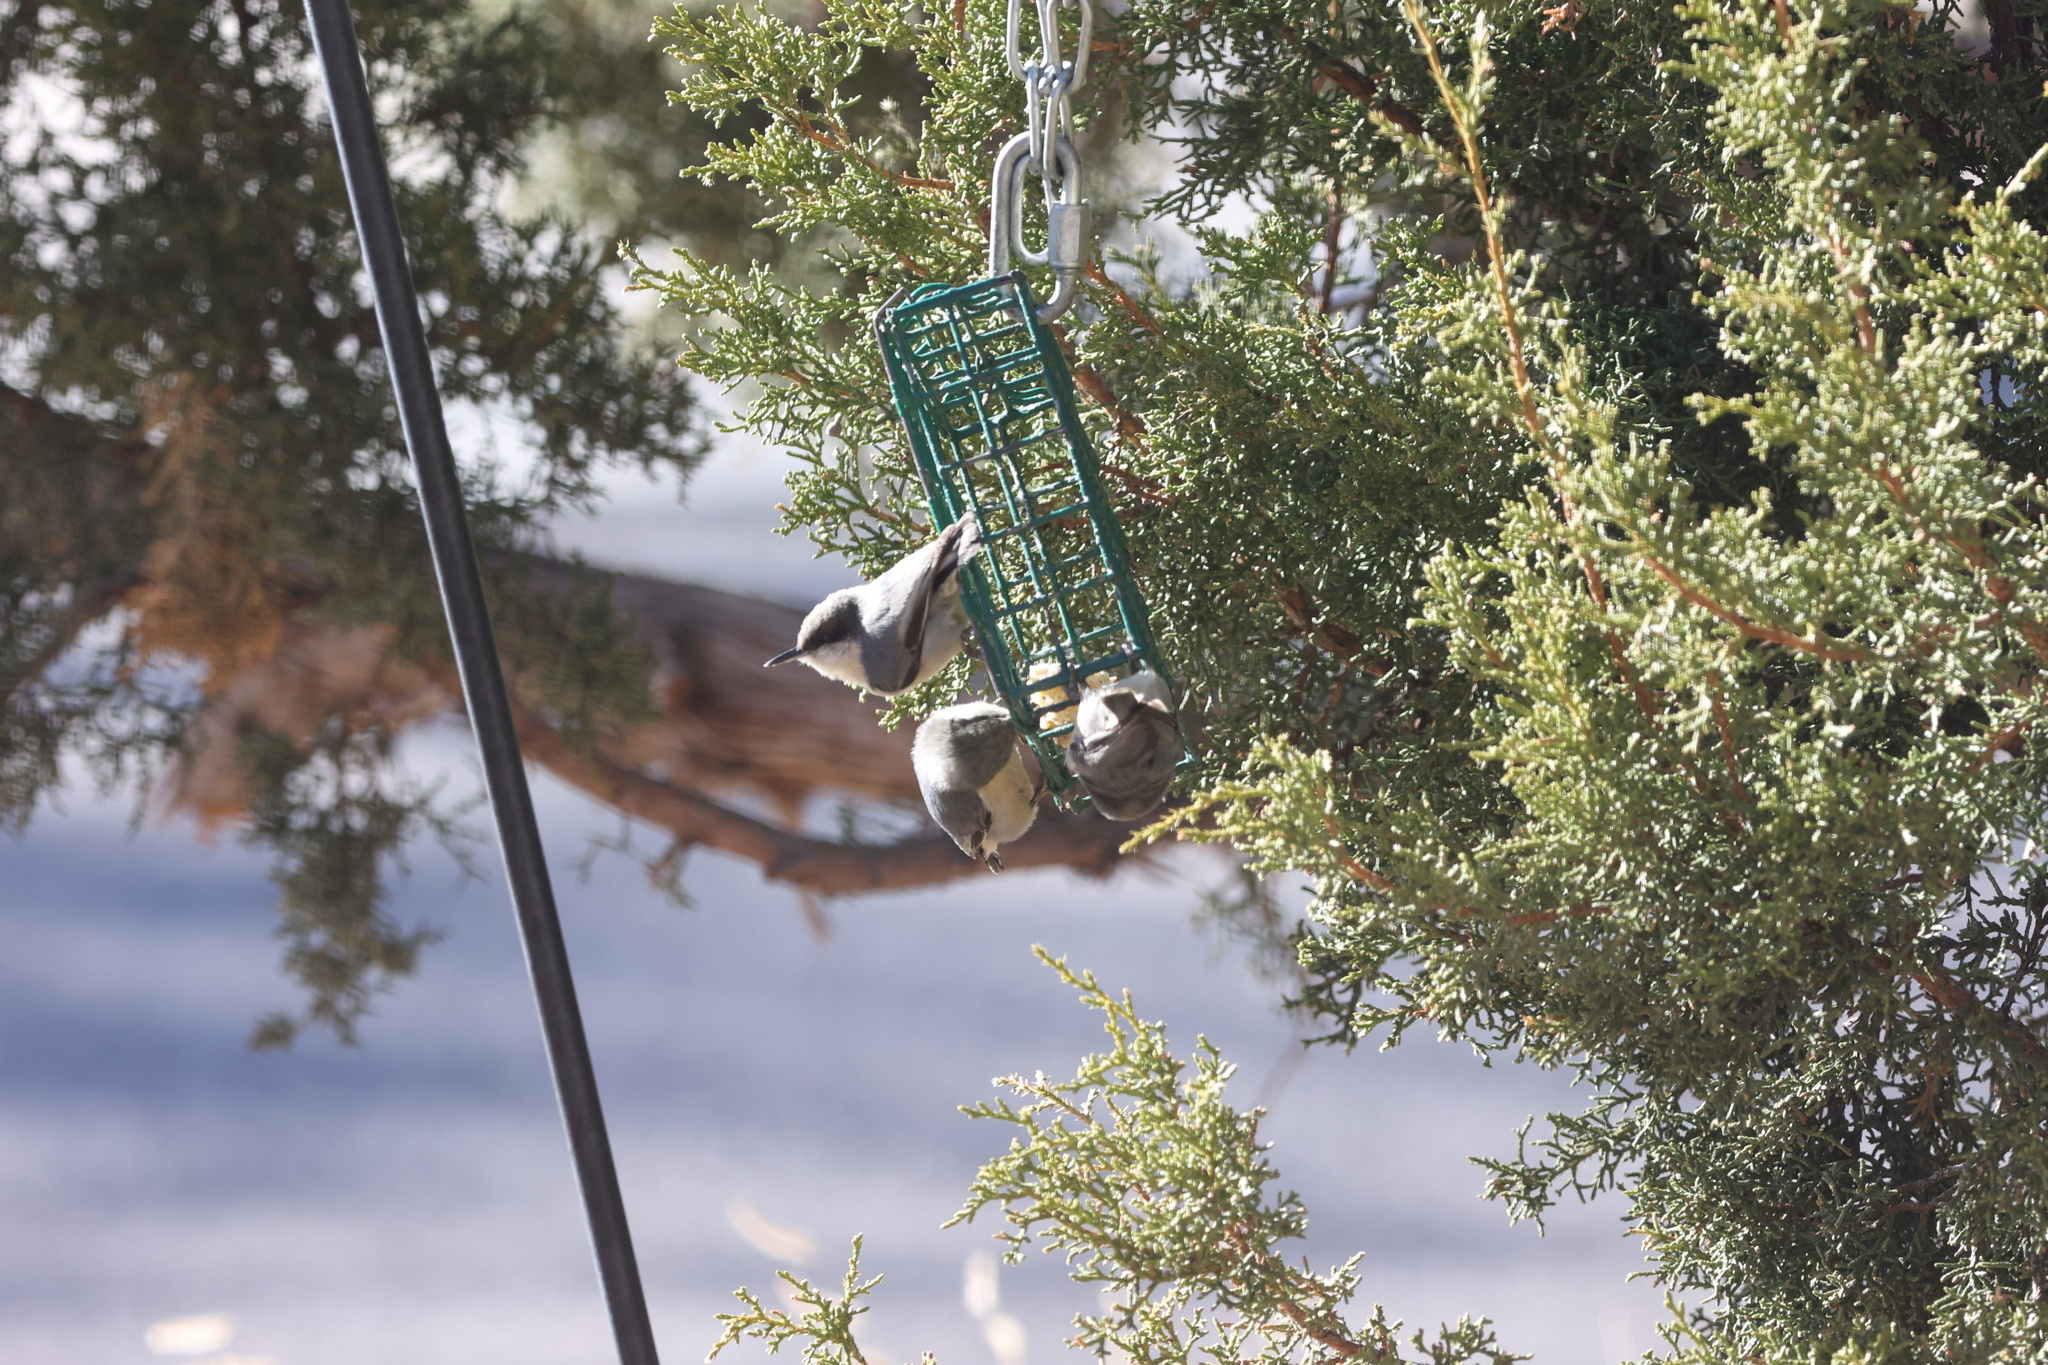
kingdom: Animalia
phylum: Chordata
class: Aves
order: Passeriformes
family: Sittidae
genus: Sitta
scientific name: Sitta pygmaea
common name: Pygmy nuthatch
